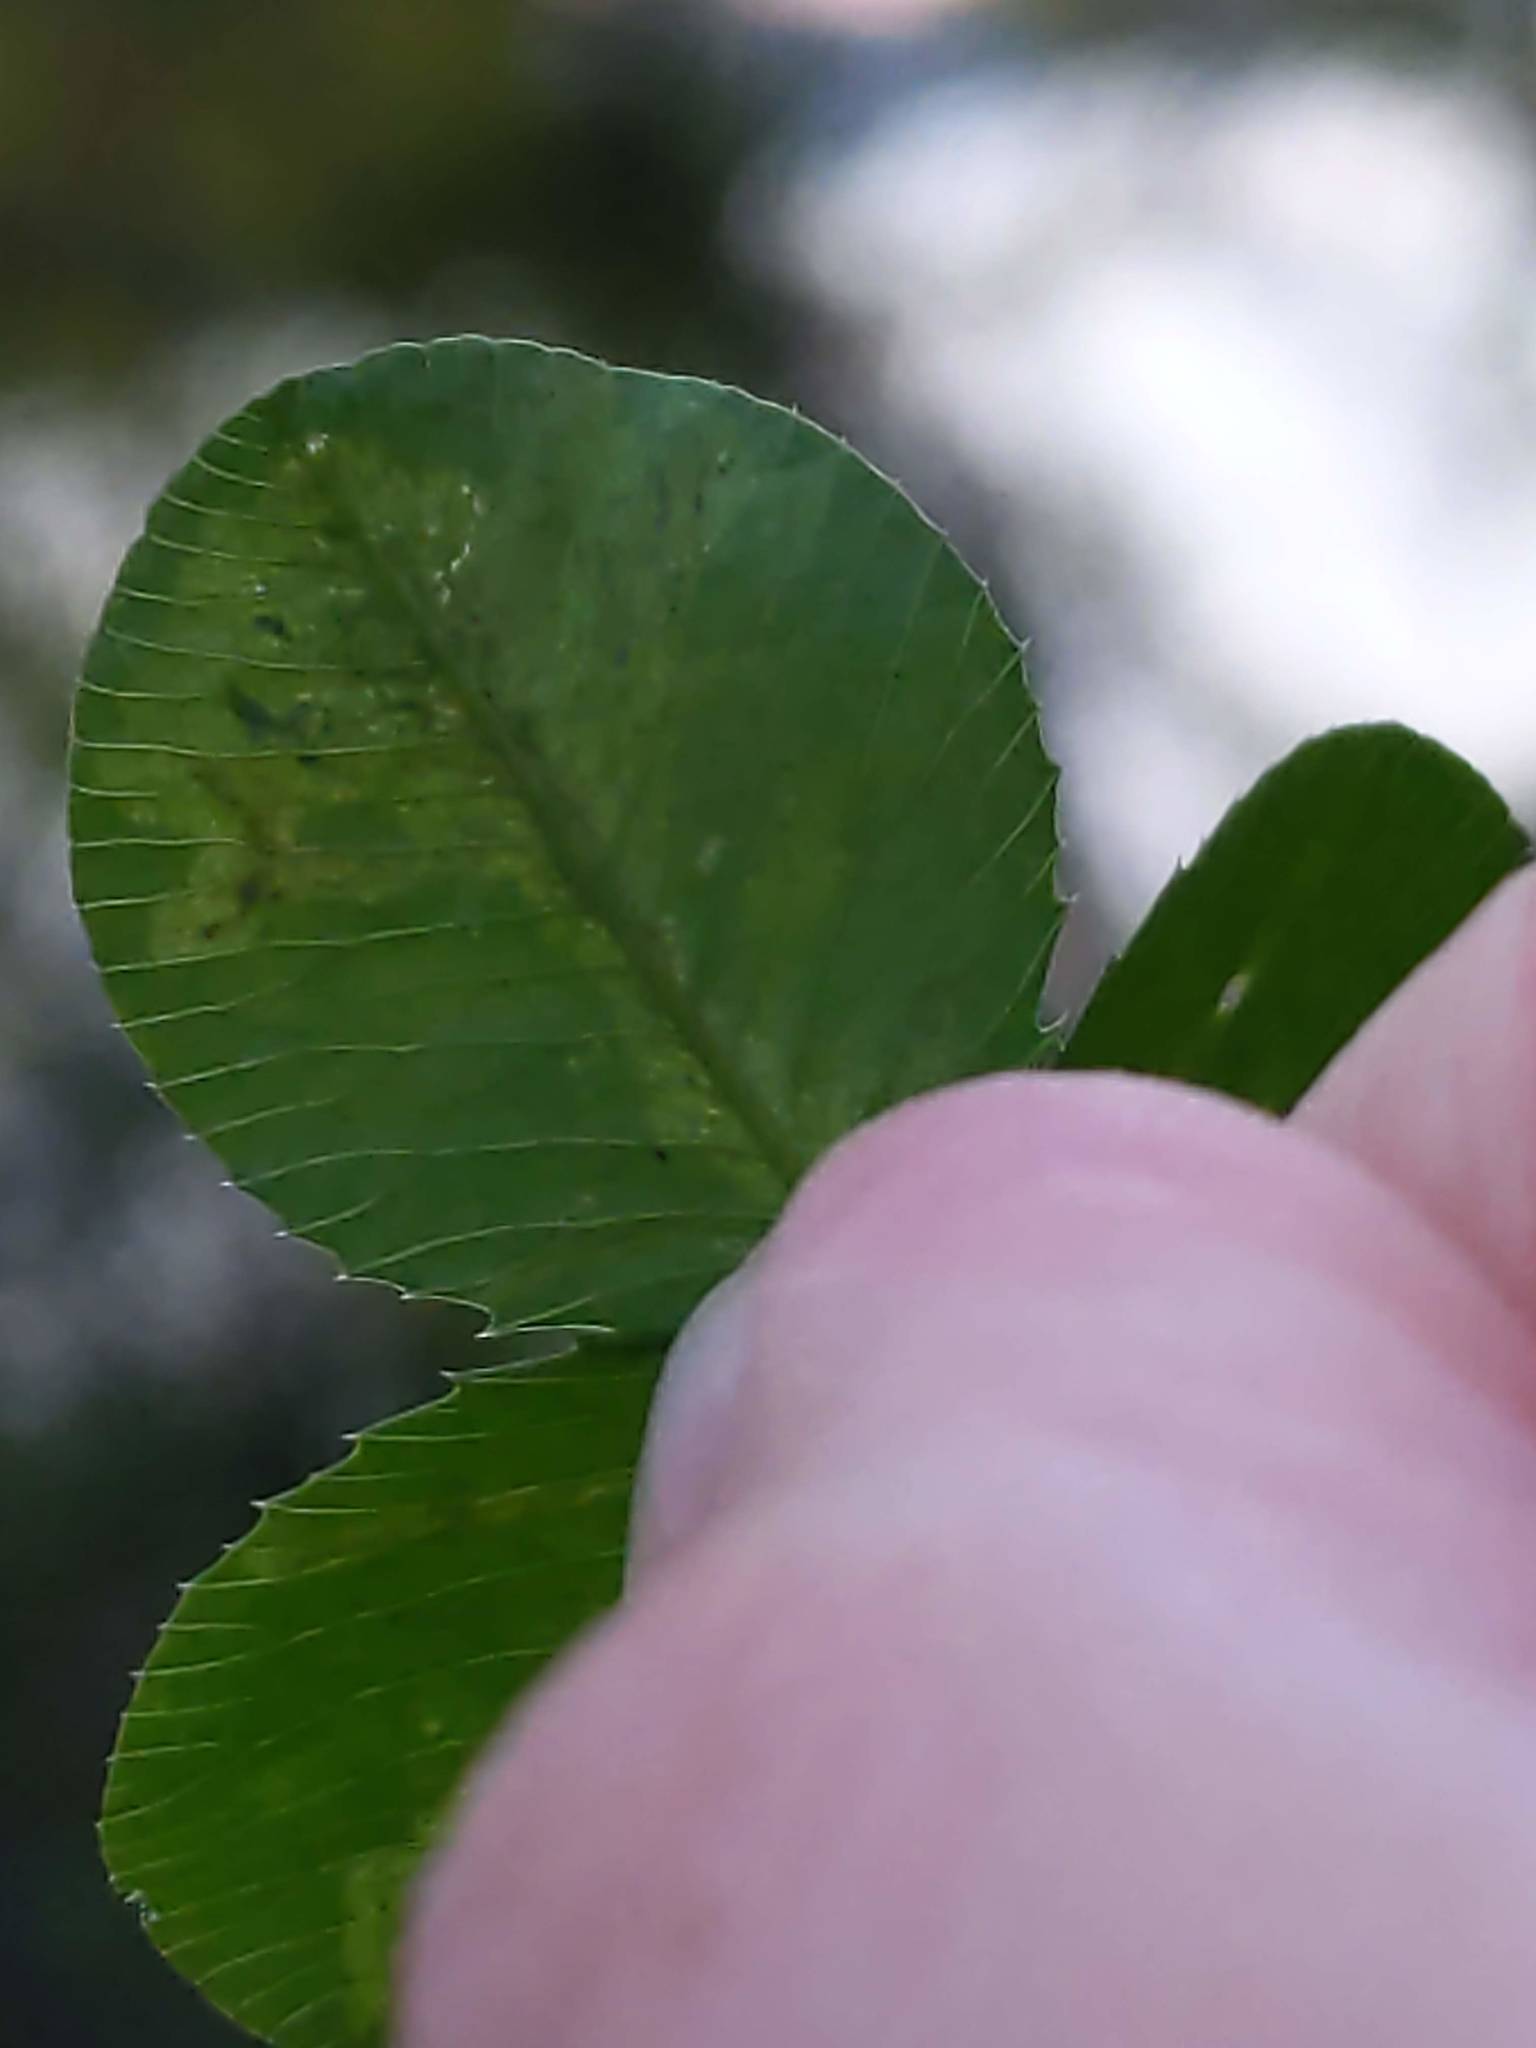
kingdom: Plantae
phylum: Tracheophyta
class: Magnoliopsida
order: Fabales
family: Fabaceae
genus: Trifolium
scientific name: Trifolium repens
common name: White clover
